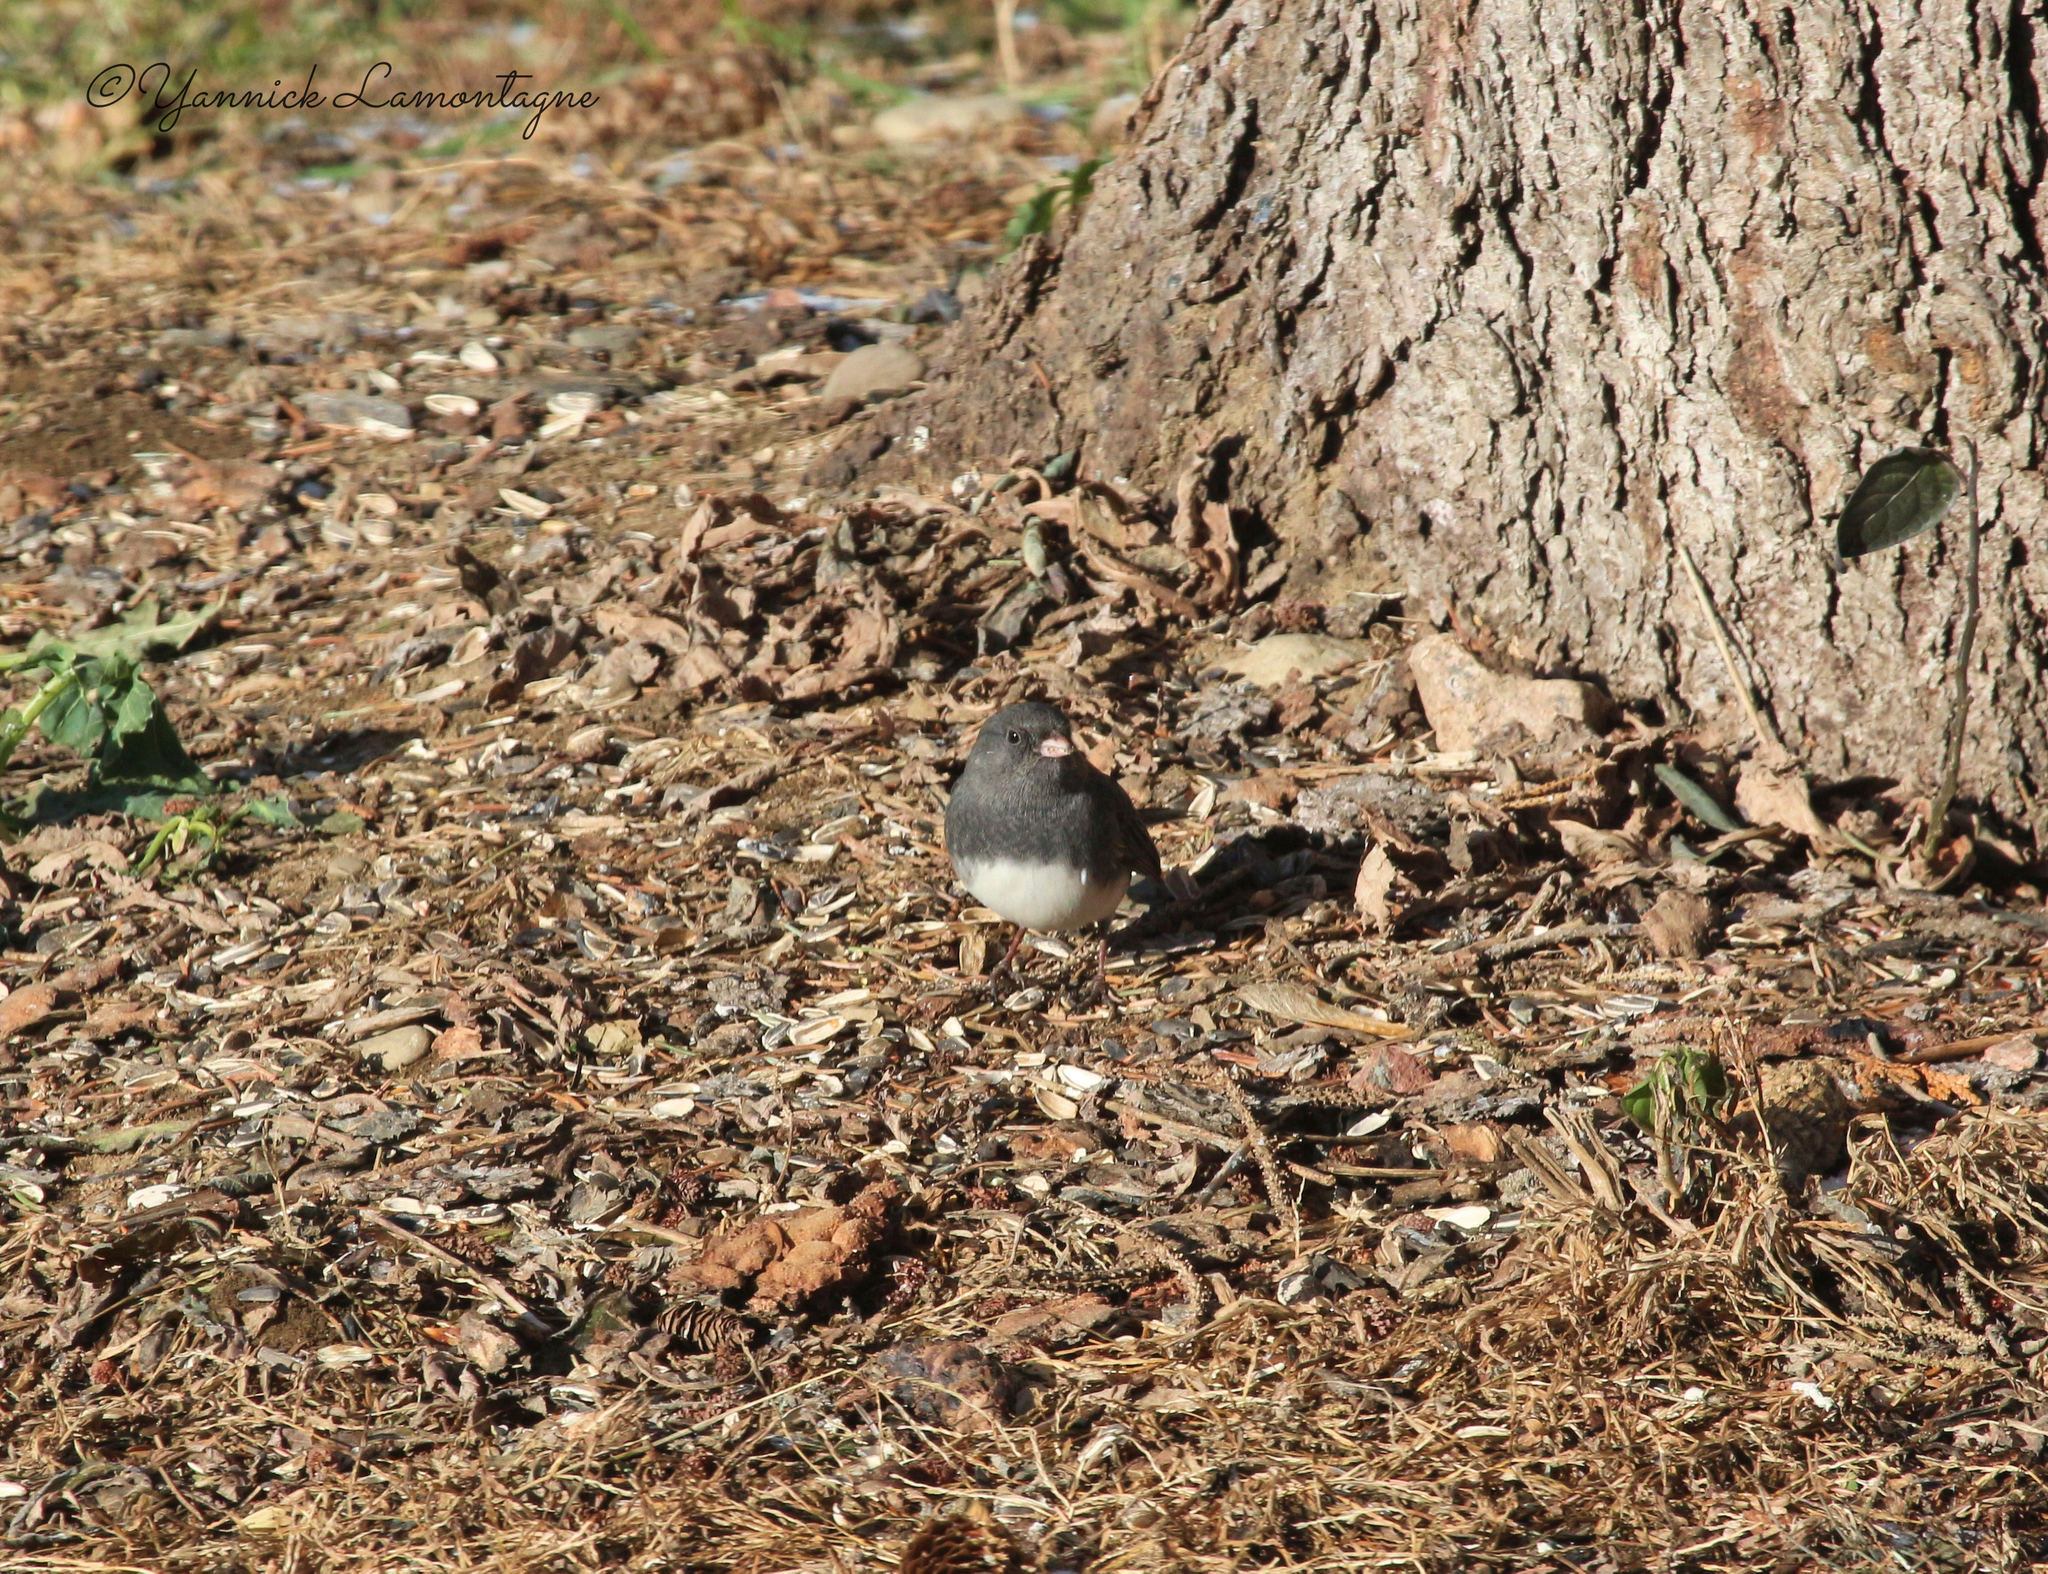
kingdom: Animalia
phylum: Chordata
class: Aves
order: Passeriformes
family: Passerellidae
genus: Junco
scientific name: Junco hyemalis
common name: Dark-eyed junco
